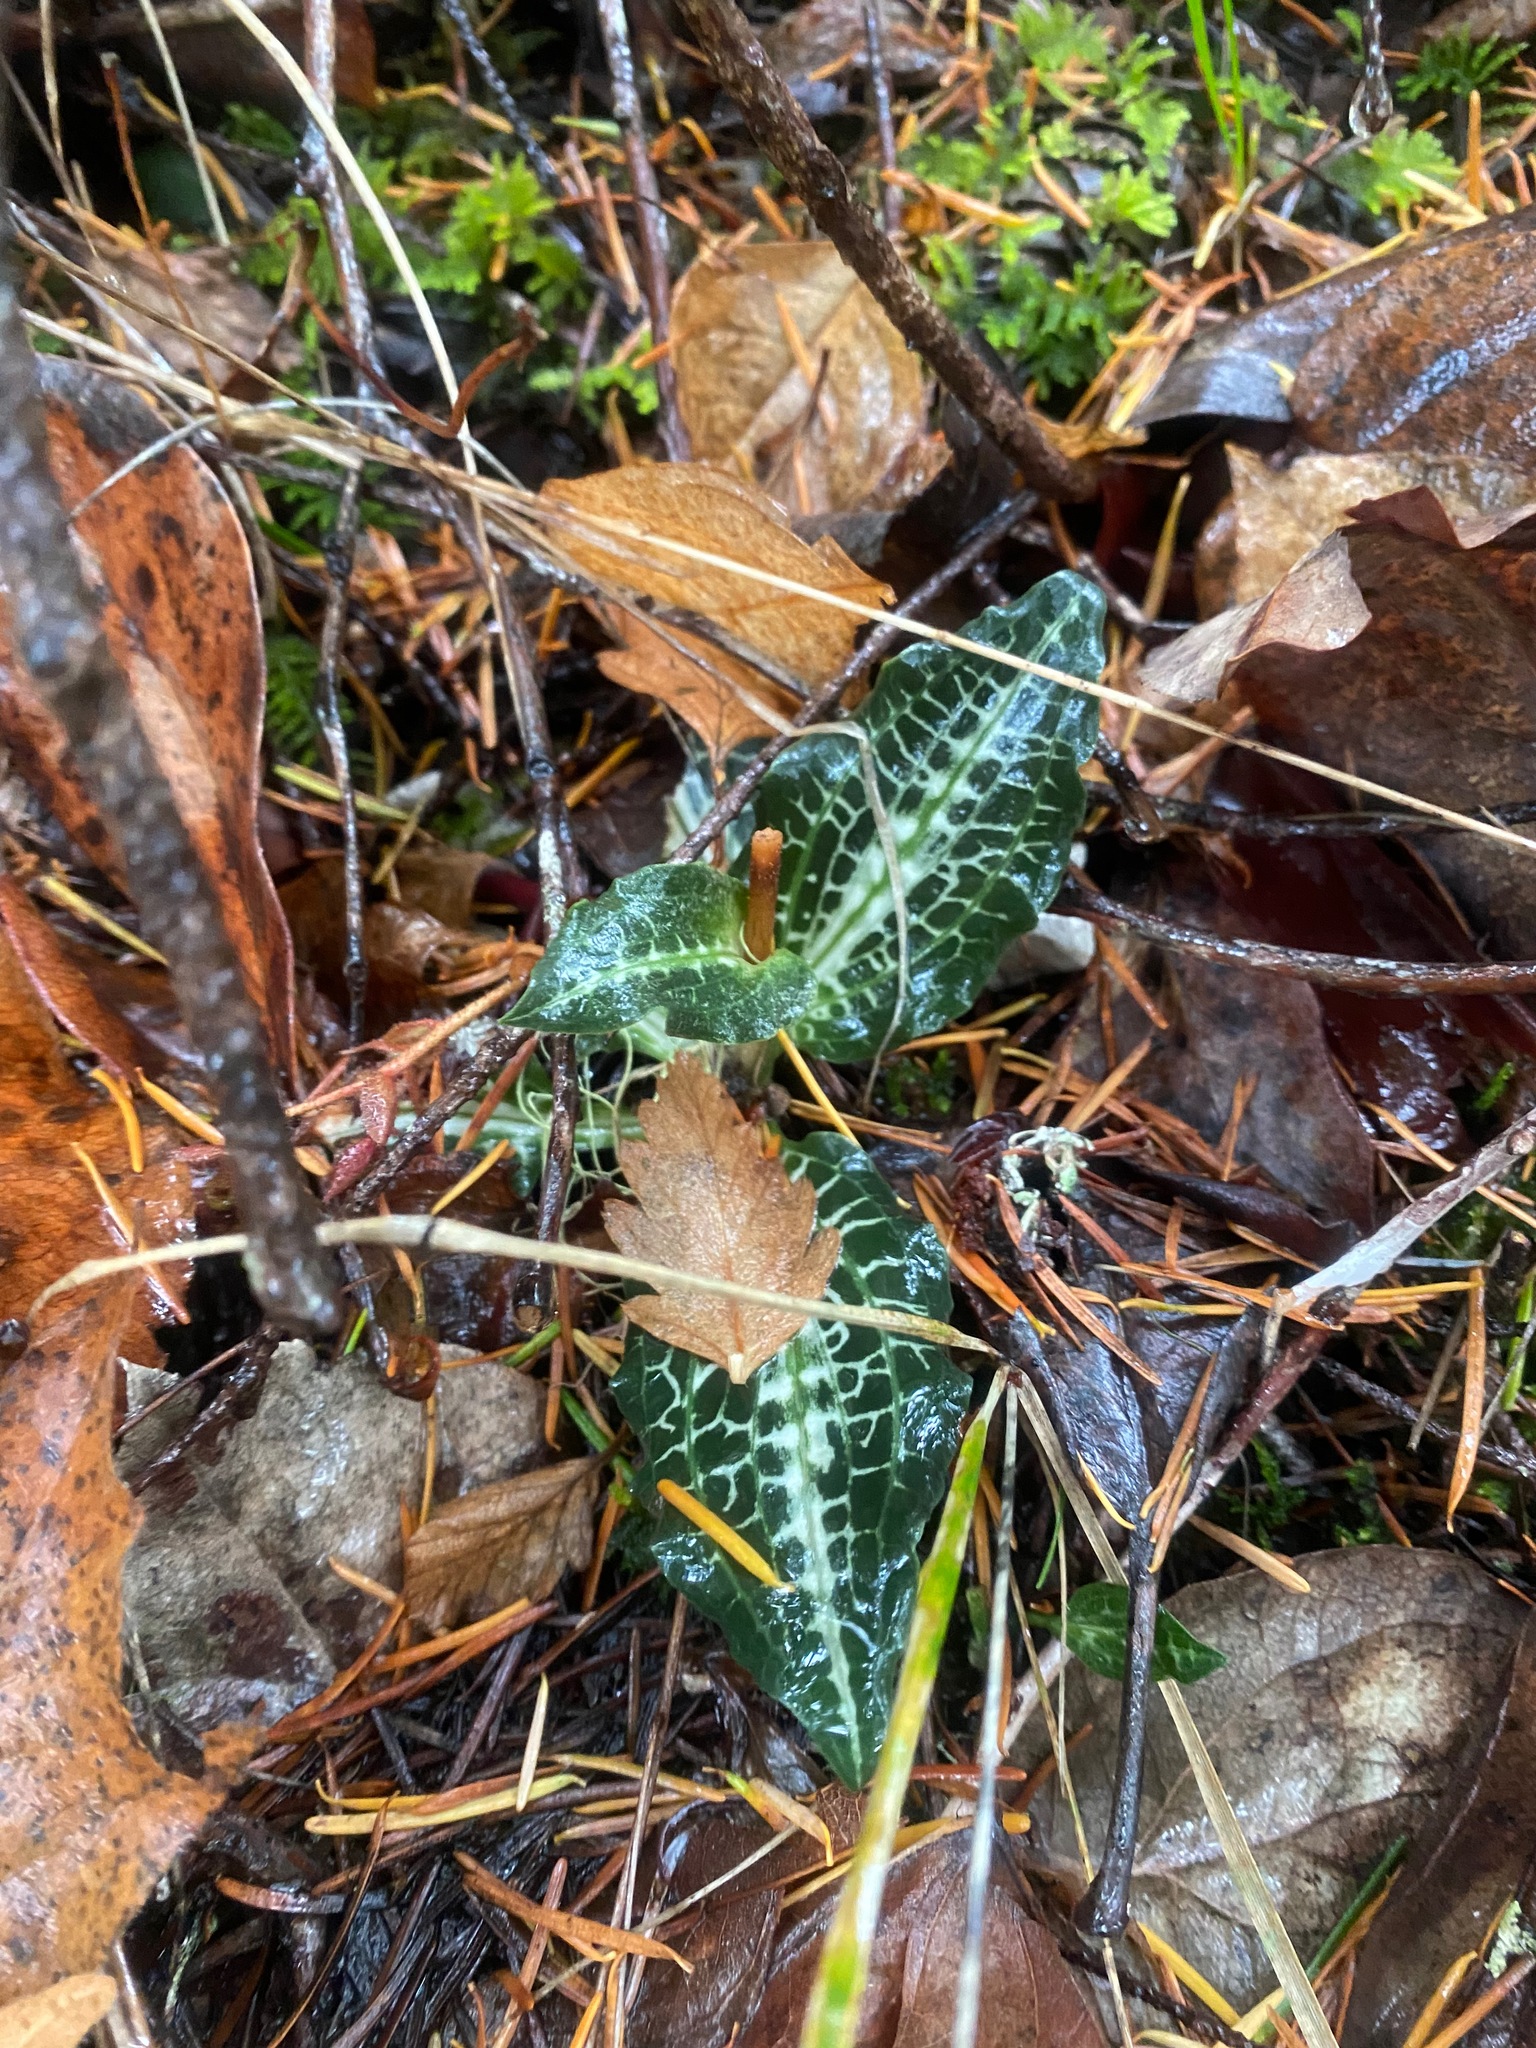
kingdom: Plantae
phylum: Tracheophyta
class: Liliopsida
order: Asparagales
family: Orchidaceae
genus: Goodyera
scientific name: Goodyera oblongifolia
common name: Giant rattlesnake-plantain
